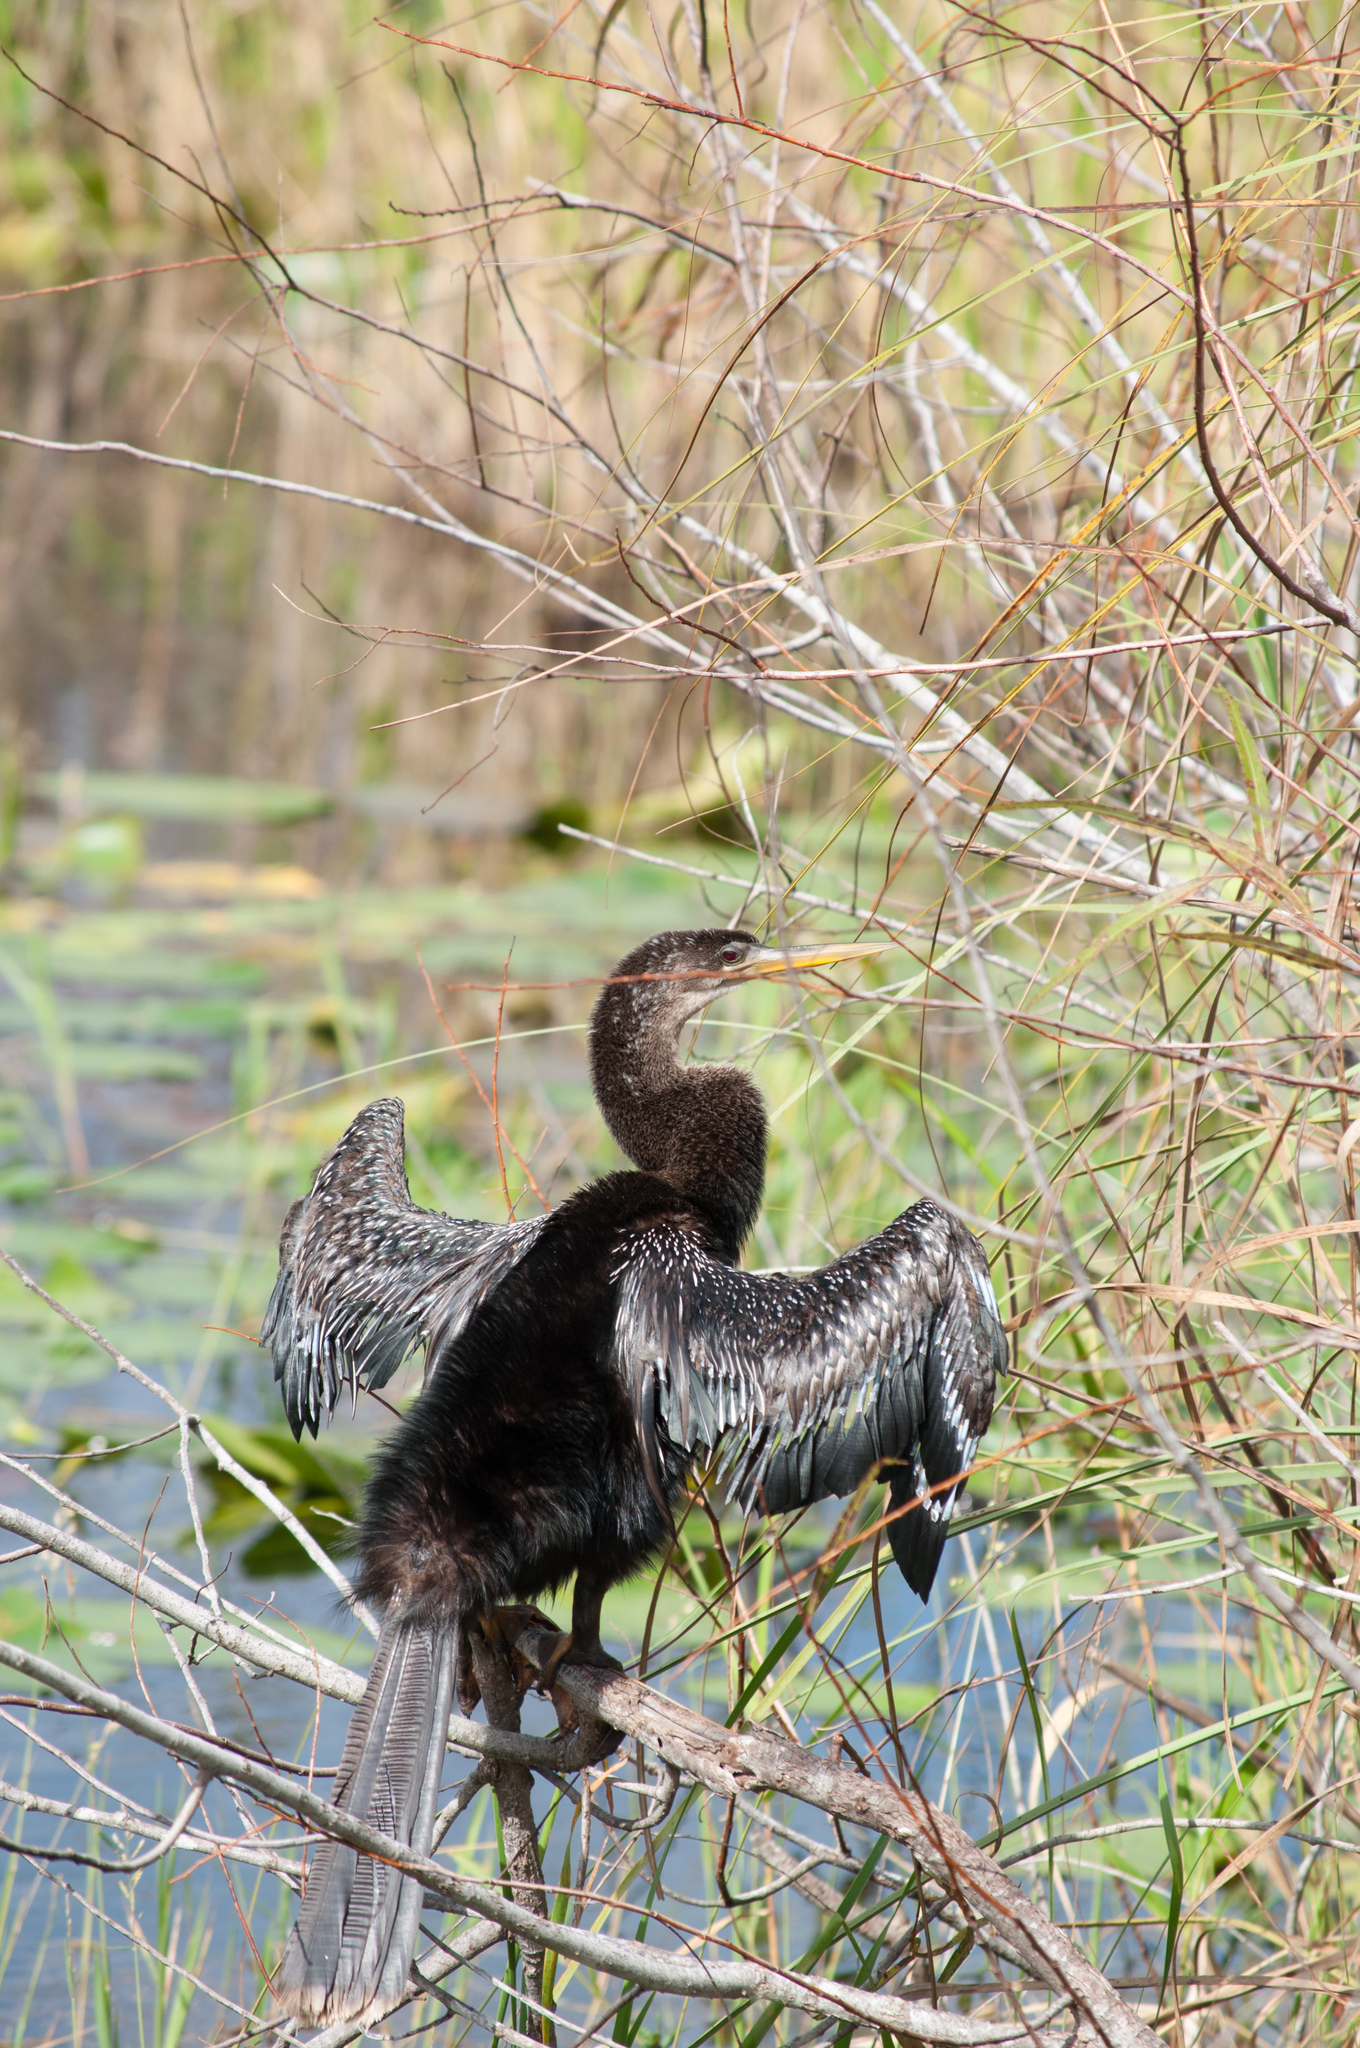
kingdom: Animalia
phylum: Chordata
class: Aves
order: Suliformes
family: Anhingidae
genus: Anhinga
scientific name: Anhinga anhinga
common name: Anhinga
